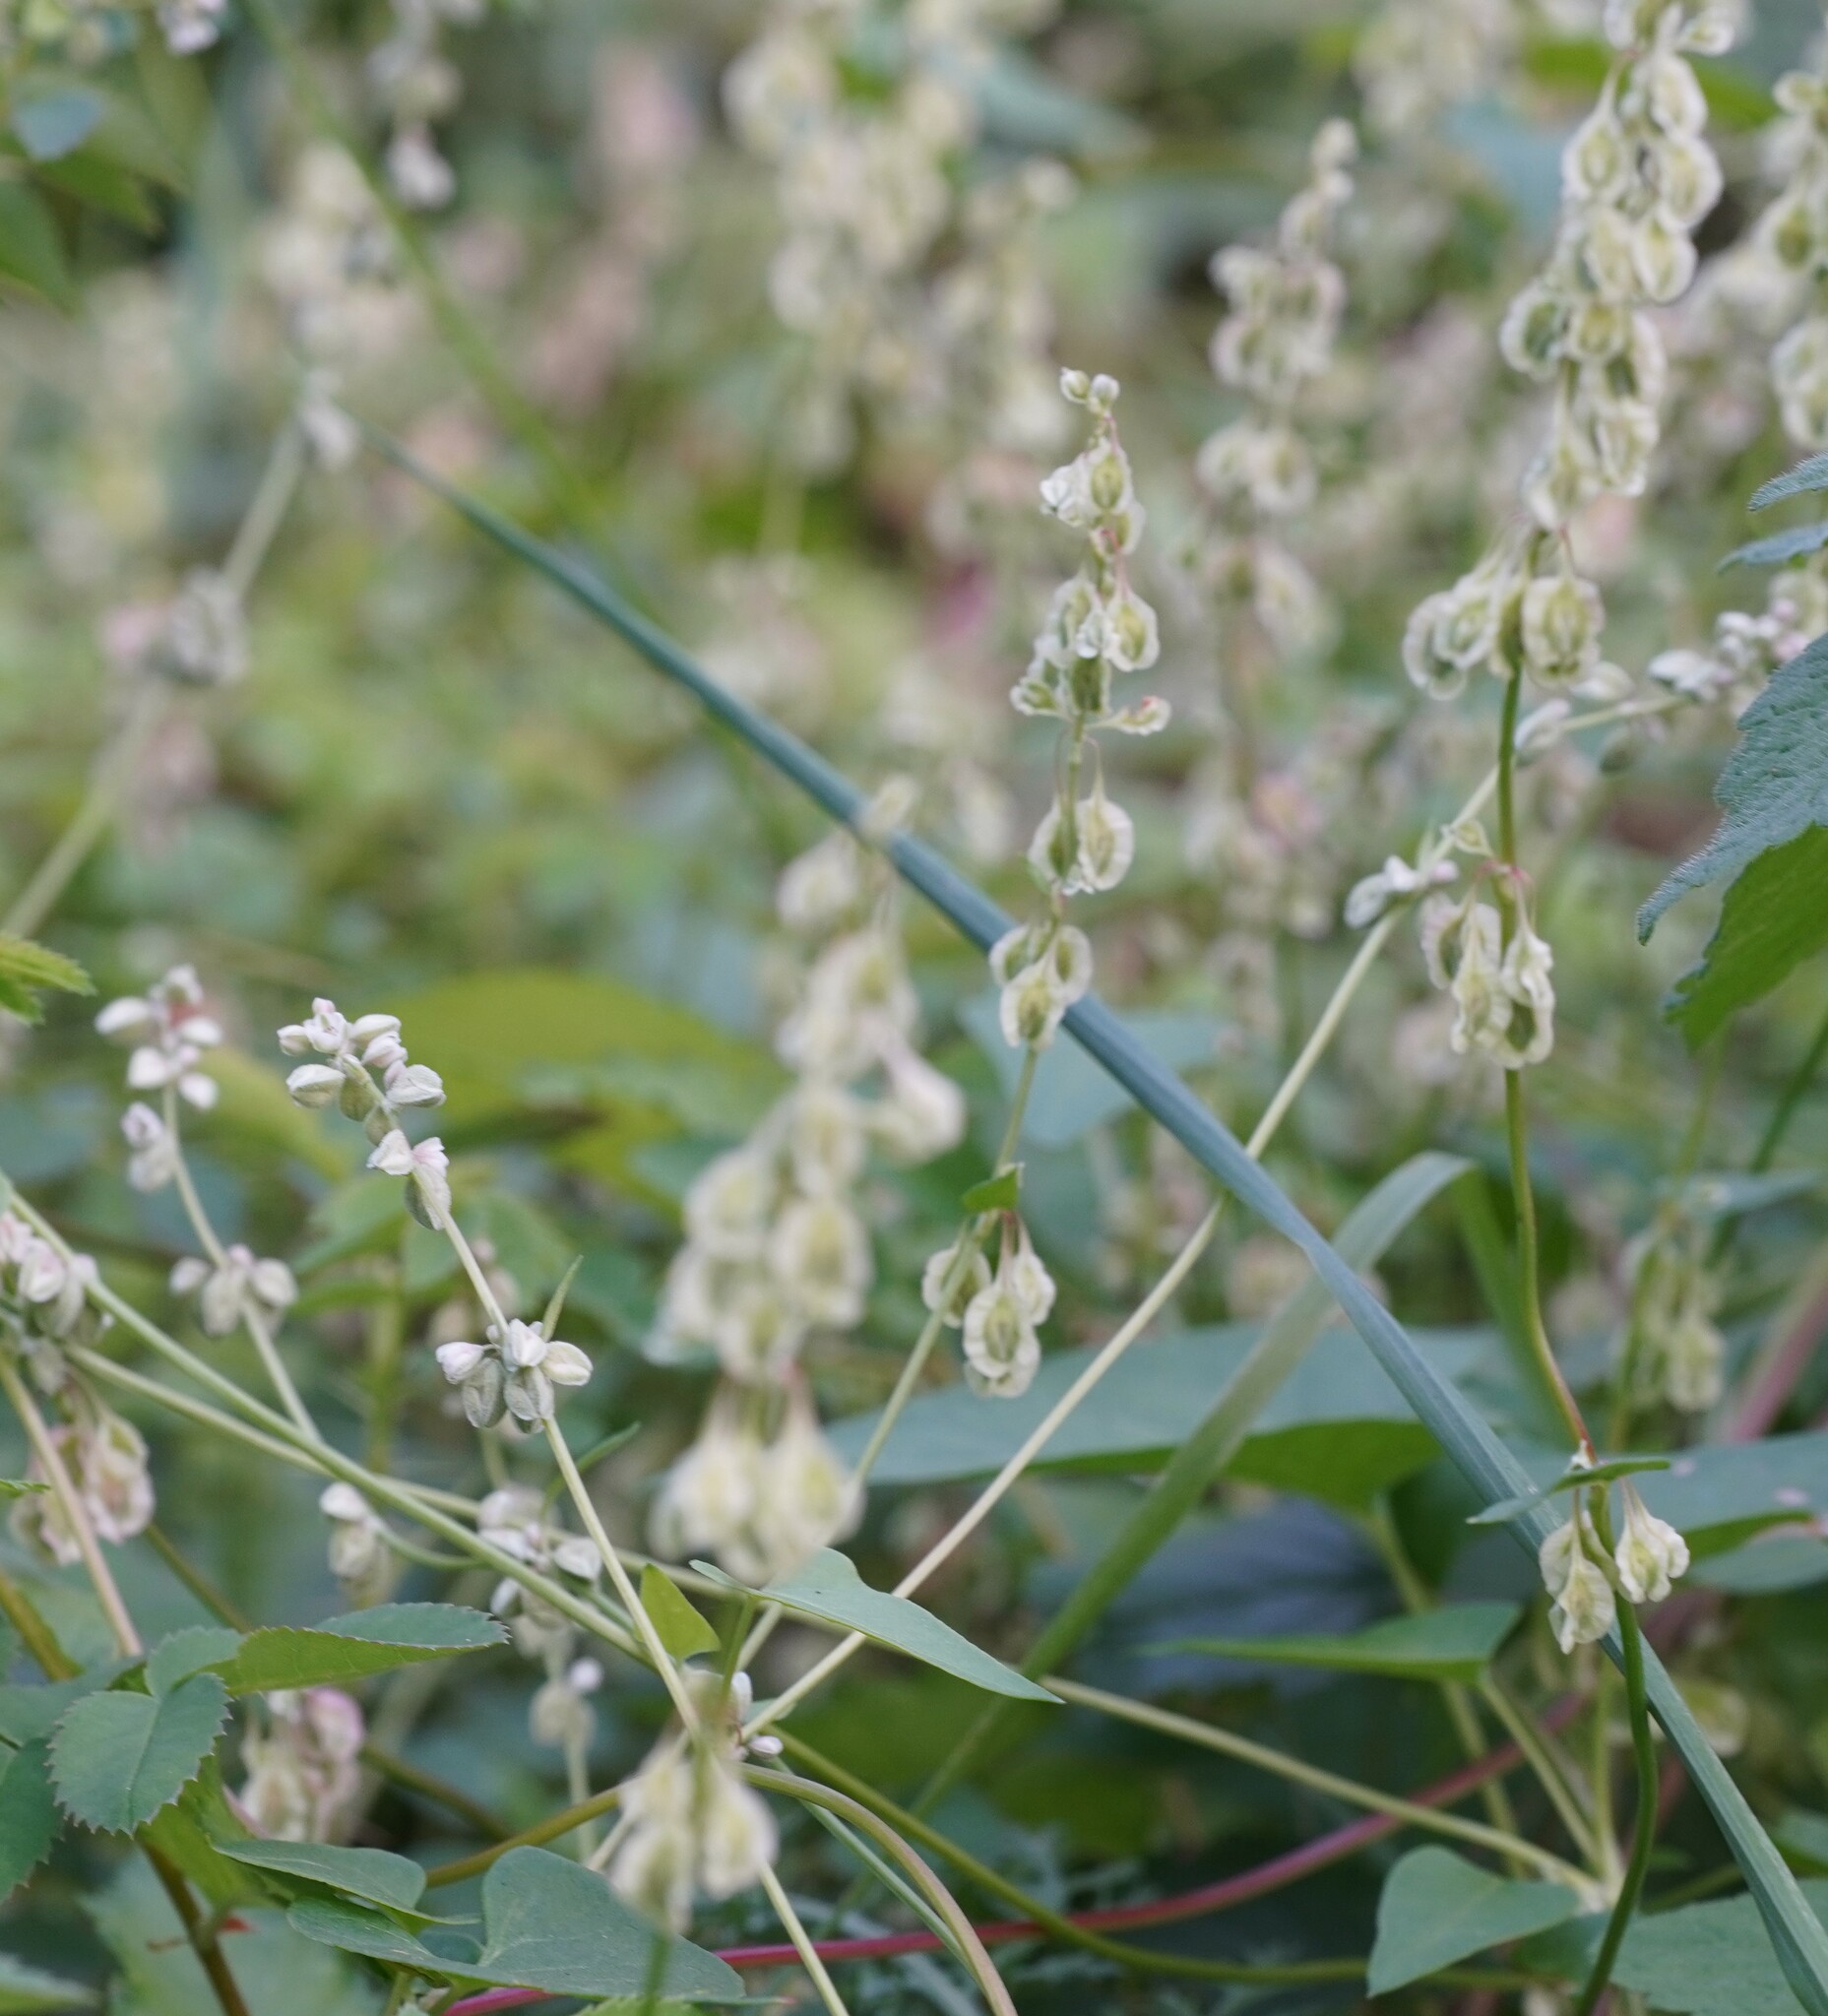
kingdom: Plantae
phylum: Tracheophyta
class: Magnoliopsida
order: Caryophyllales
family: Polygonaceae
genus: Fallopia
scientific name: Fallopia convolvulus
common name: Black bindweed
